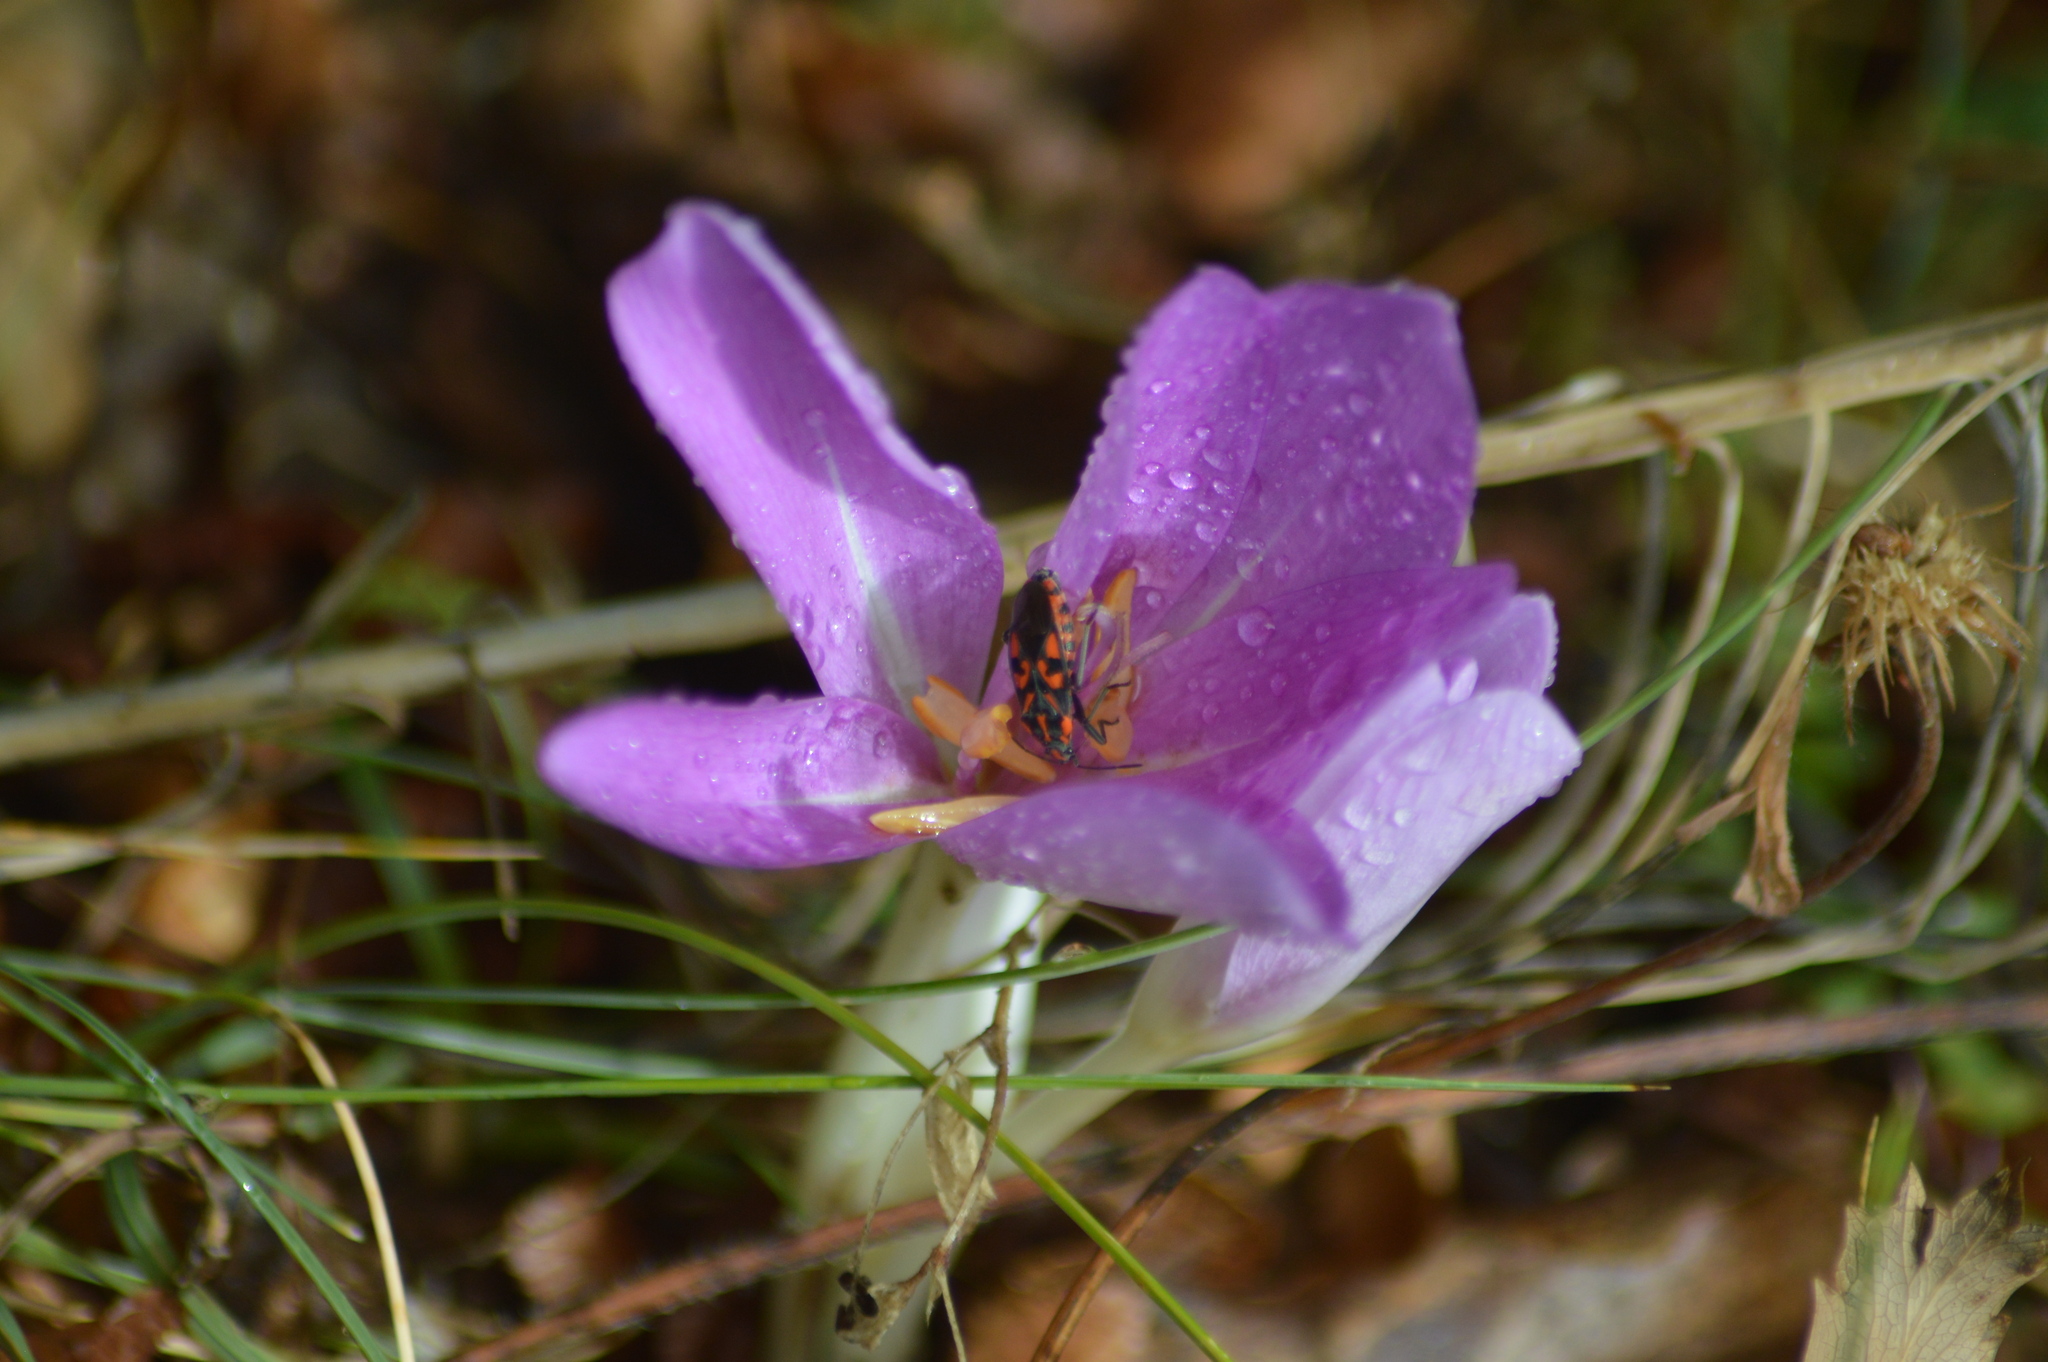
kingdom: Animalia
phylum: Arthropoda
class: Insecta
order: Hemiptera
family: Lygaeidae
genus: Spilostethus
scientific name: Spilostethus saxatilis
